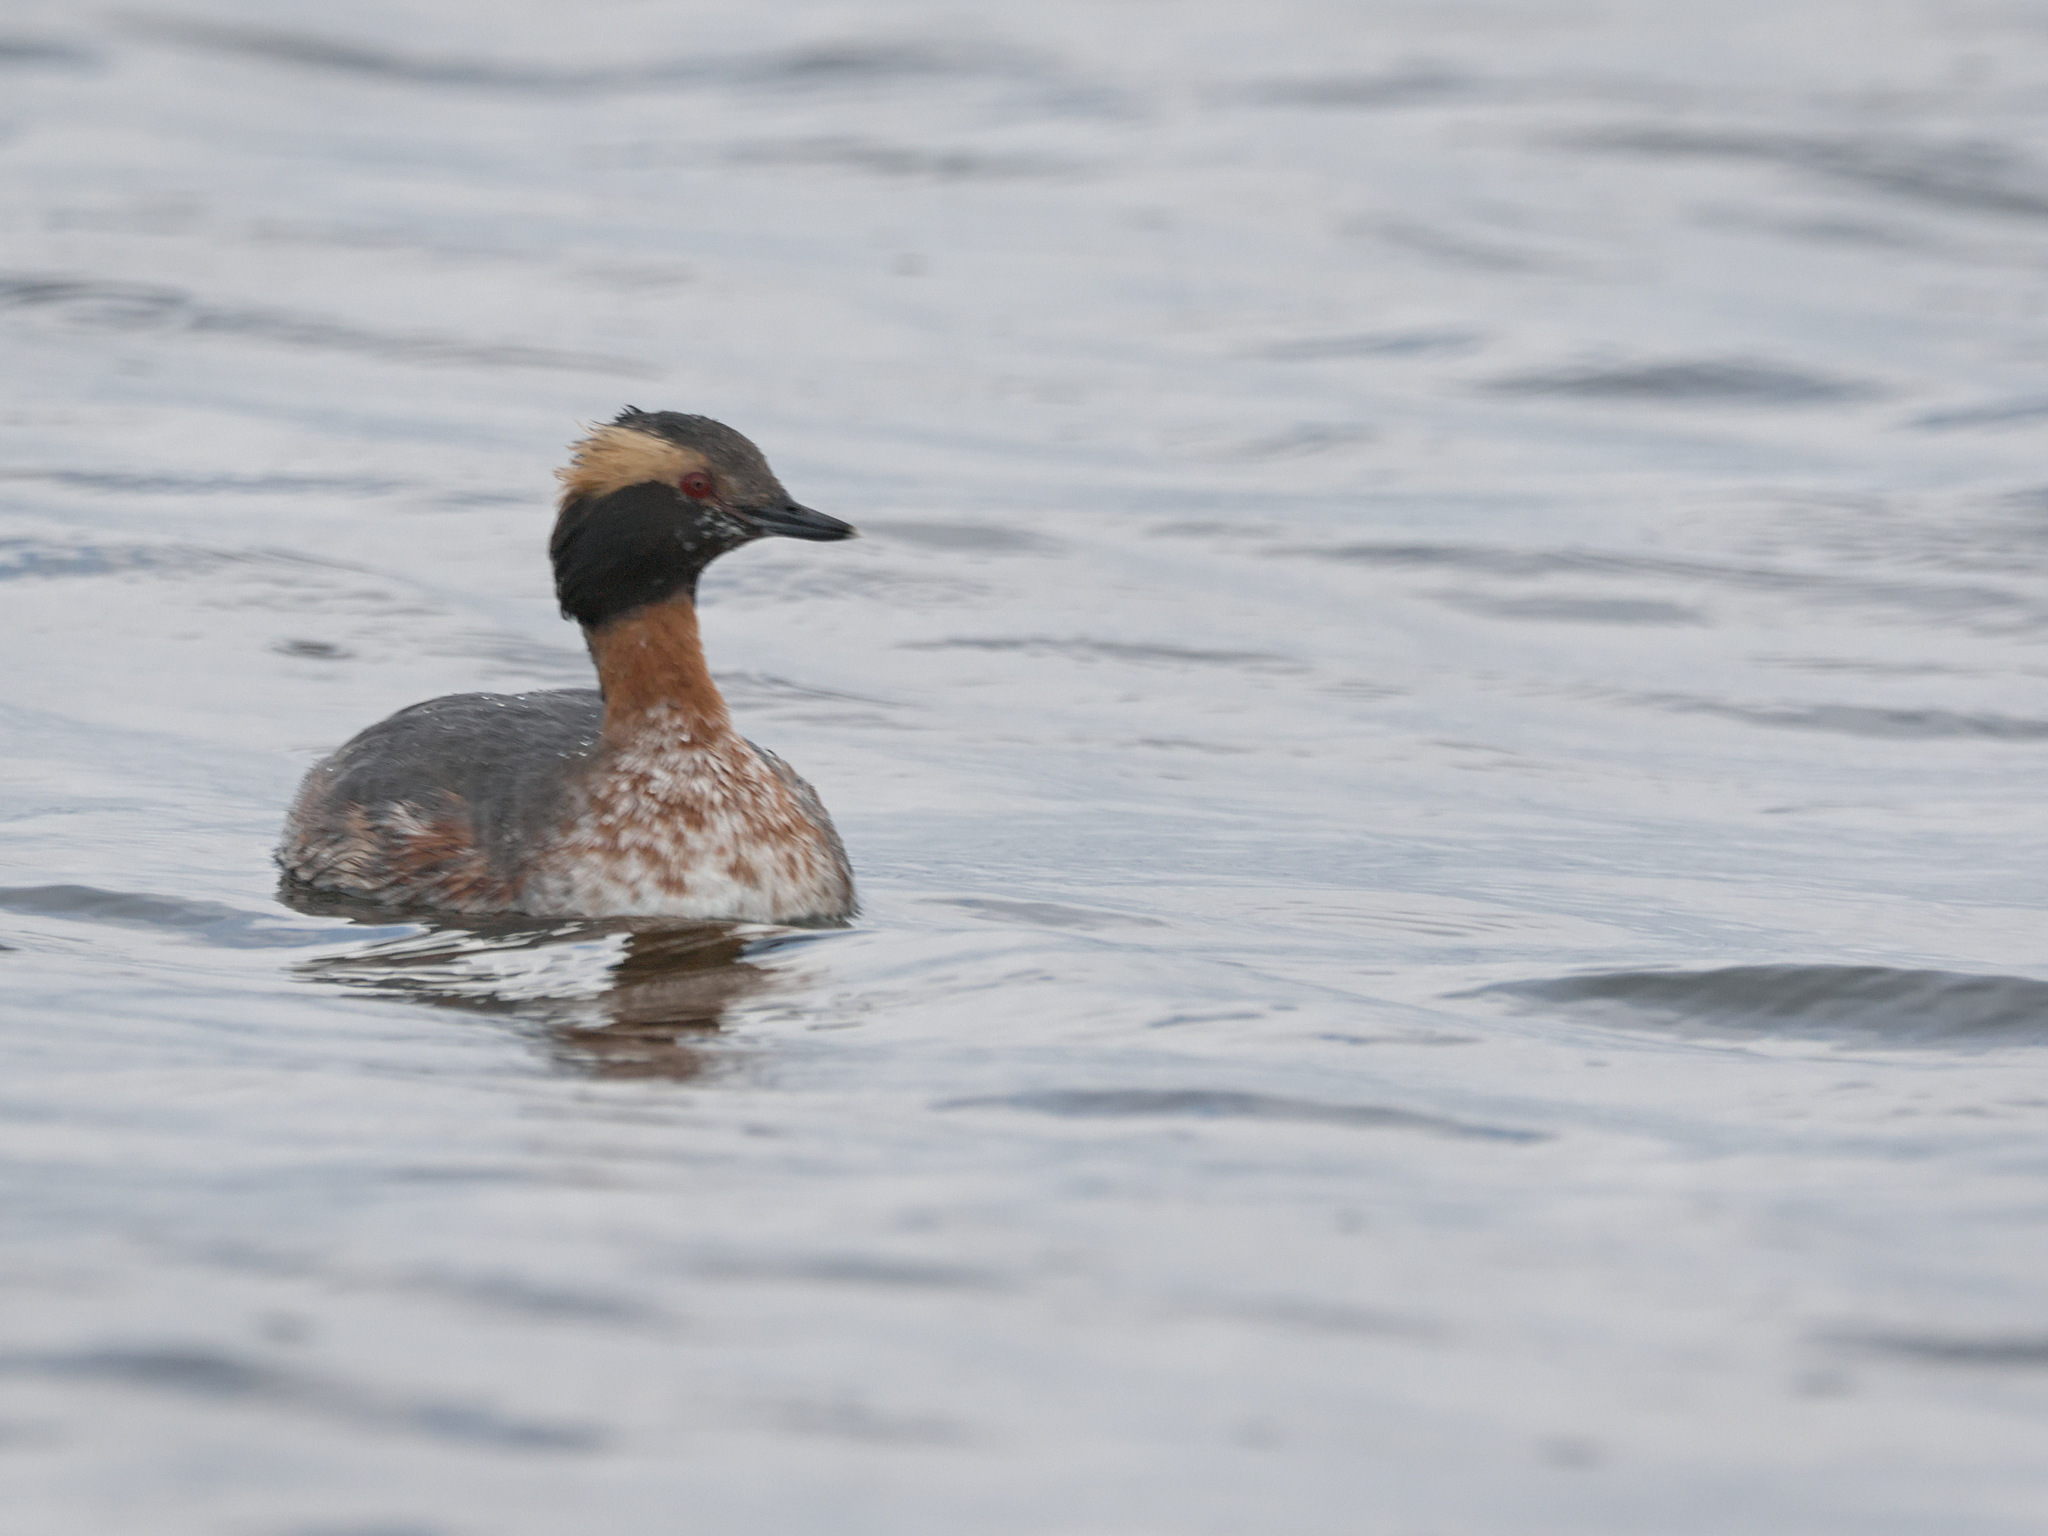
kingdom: Animalia
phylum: Chordata
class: Aves
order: Podicipediformes
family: Podicipedidae
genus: Podiceps
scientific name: Podiceps auritus
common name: Horned grebe
